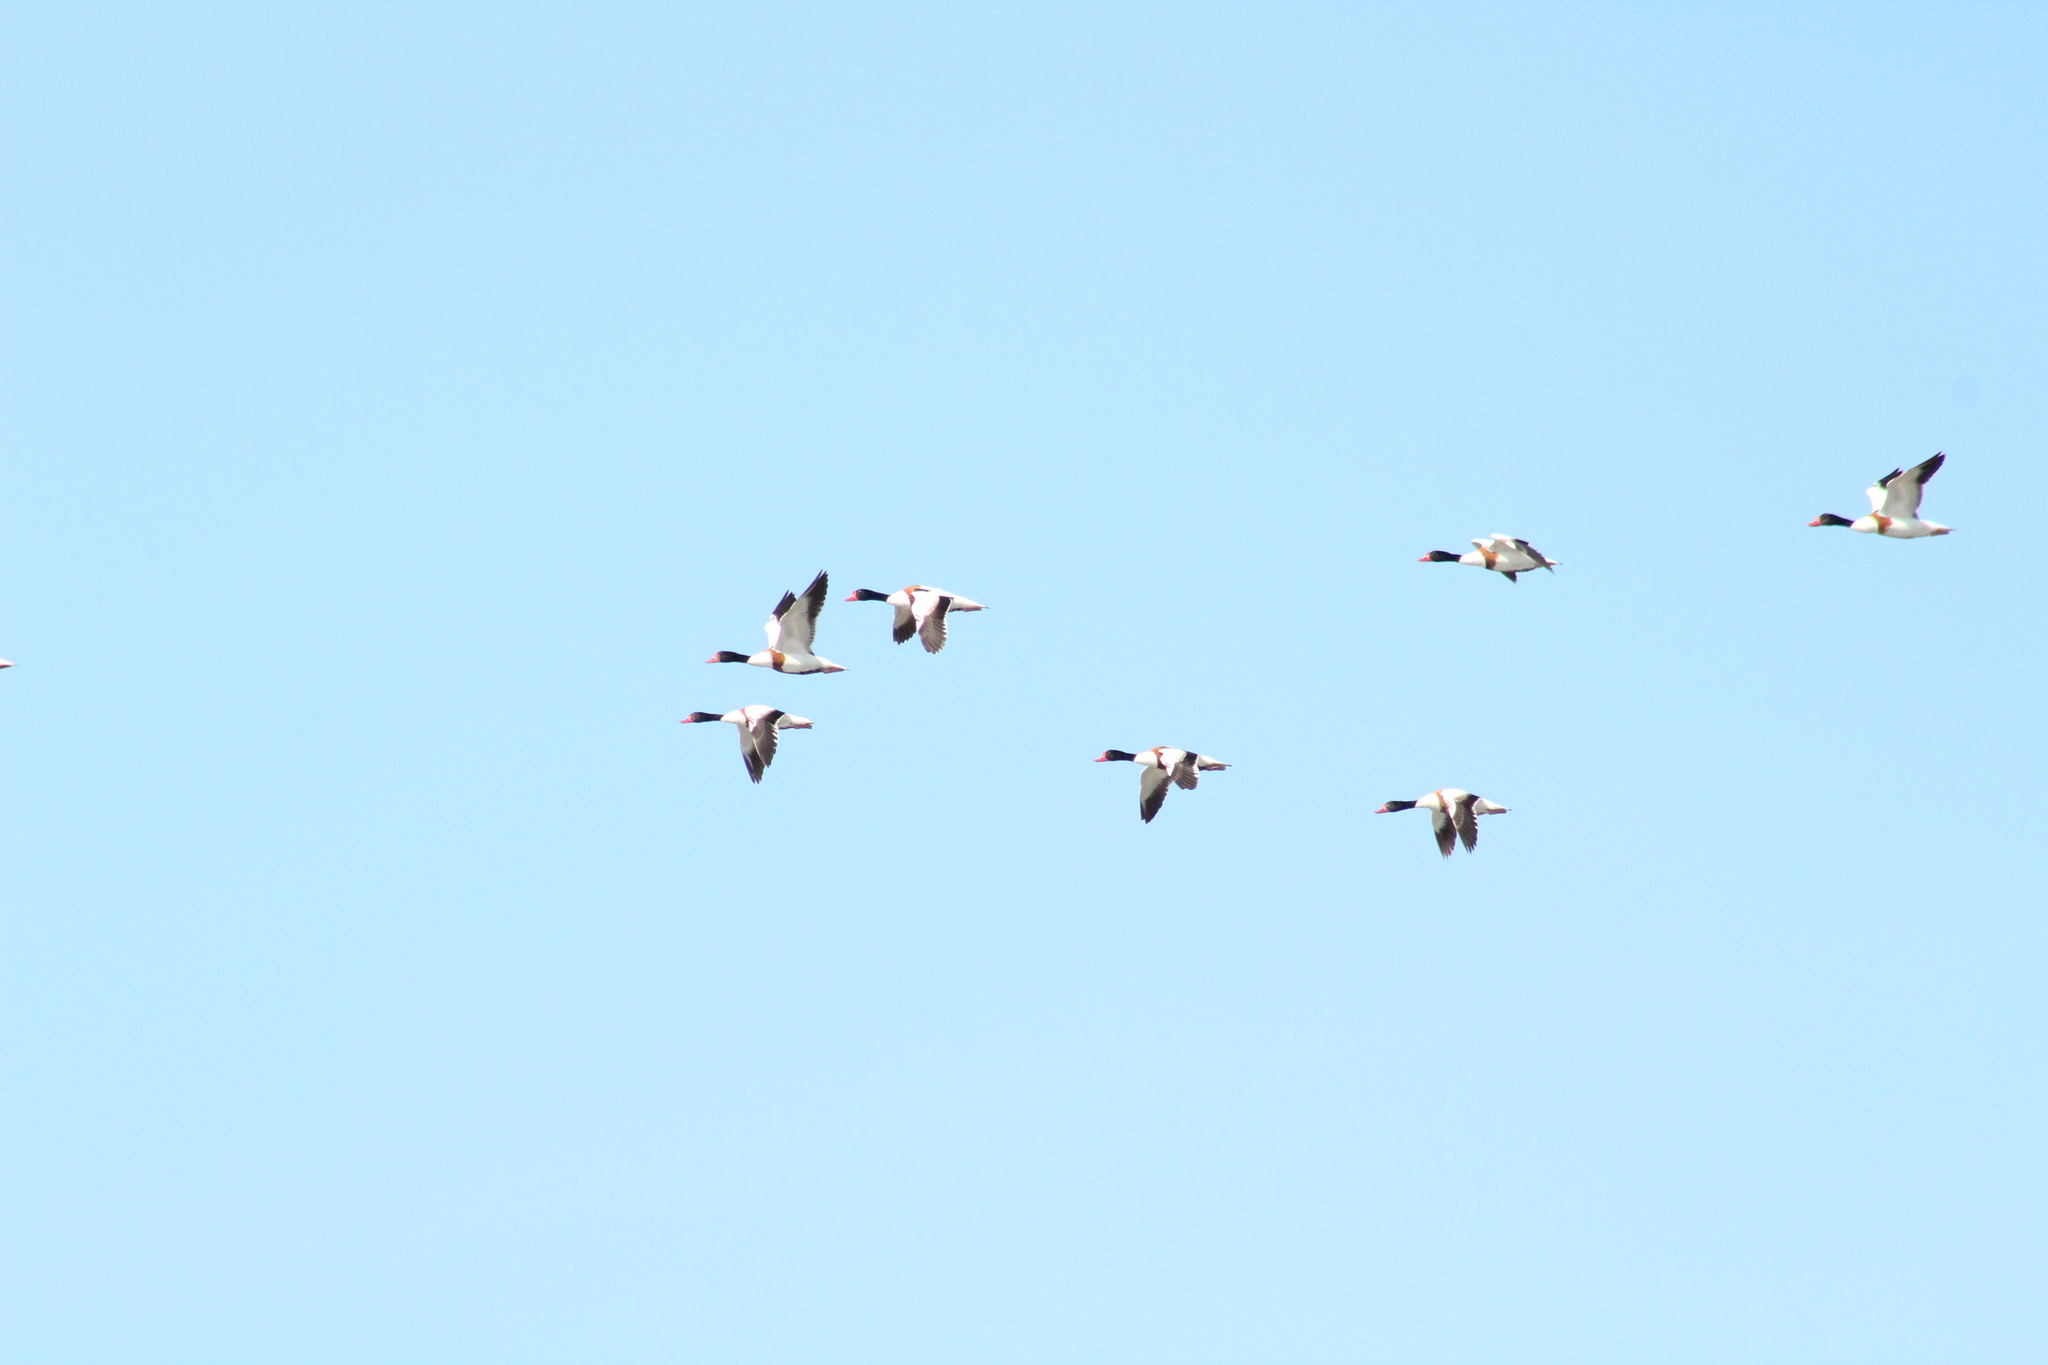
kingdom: Animalia
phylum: Chordata
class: Aves
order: Anseriformes
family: Anatidae
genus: Tadorna
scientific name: Tadorna tadorna
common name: Common shelduck
